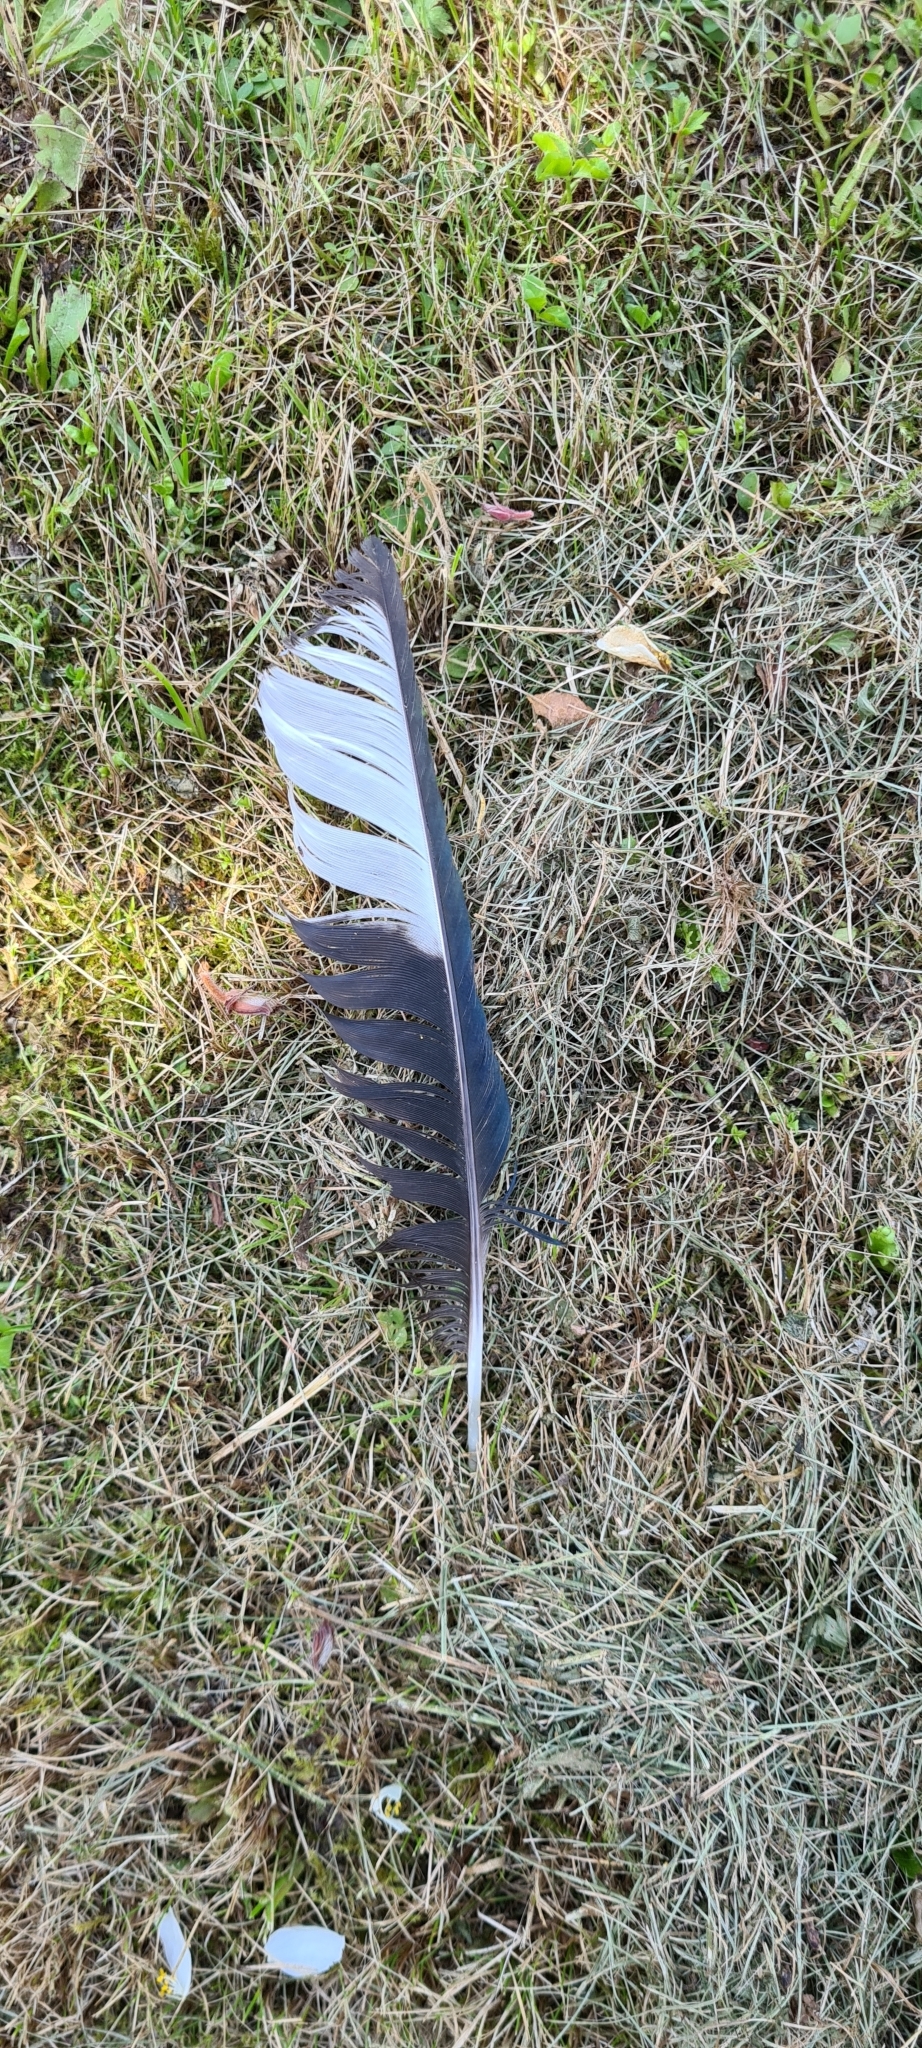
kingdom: Animalia
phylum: Chordata
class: Aves
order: Passeriformes
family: Corvidae
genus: Pica
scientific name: Pica pica
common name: Eurasian magpie
